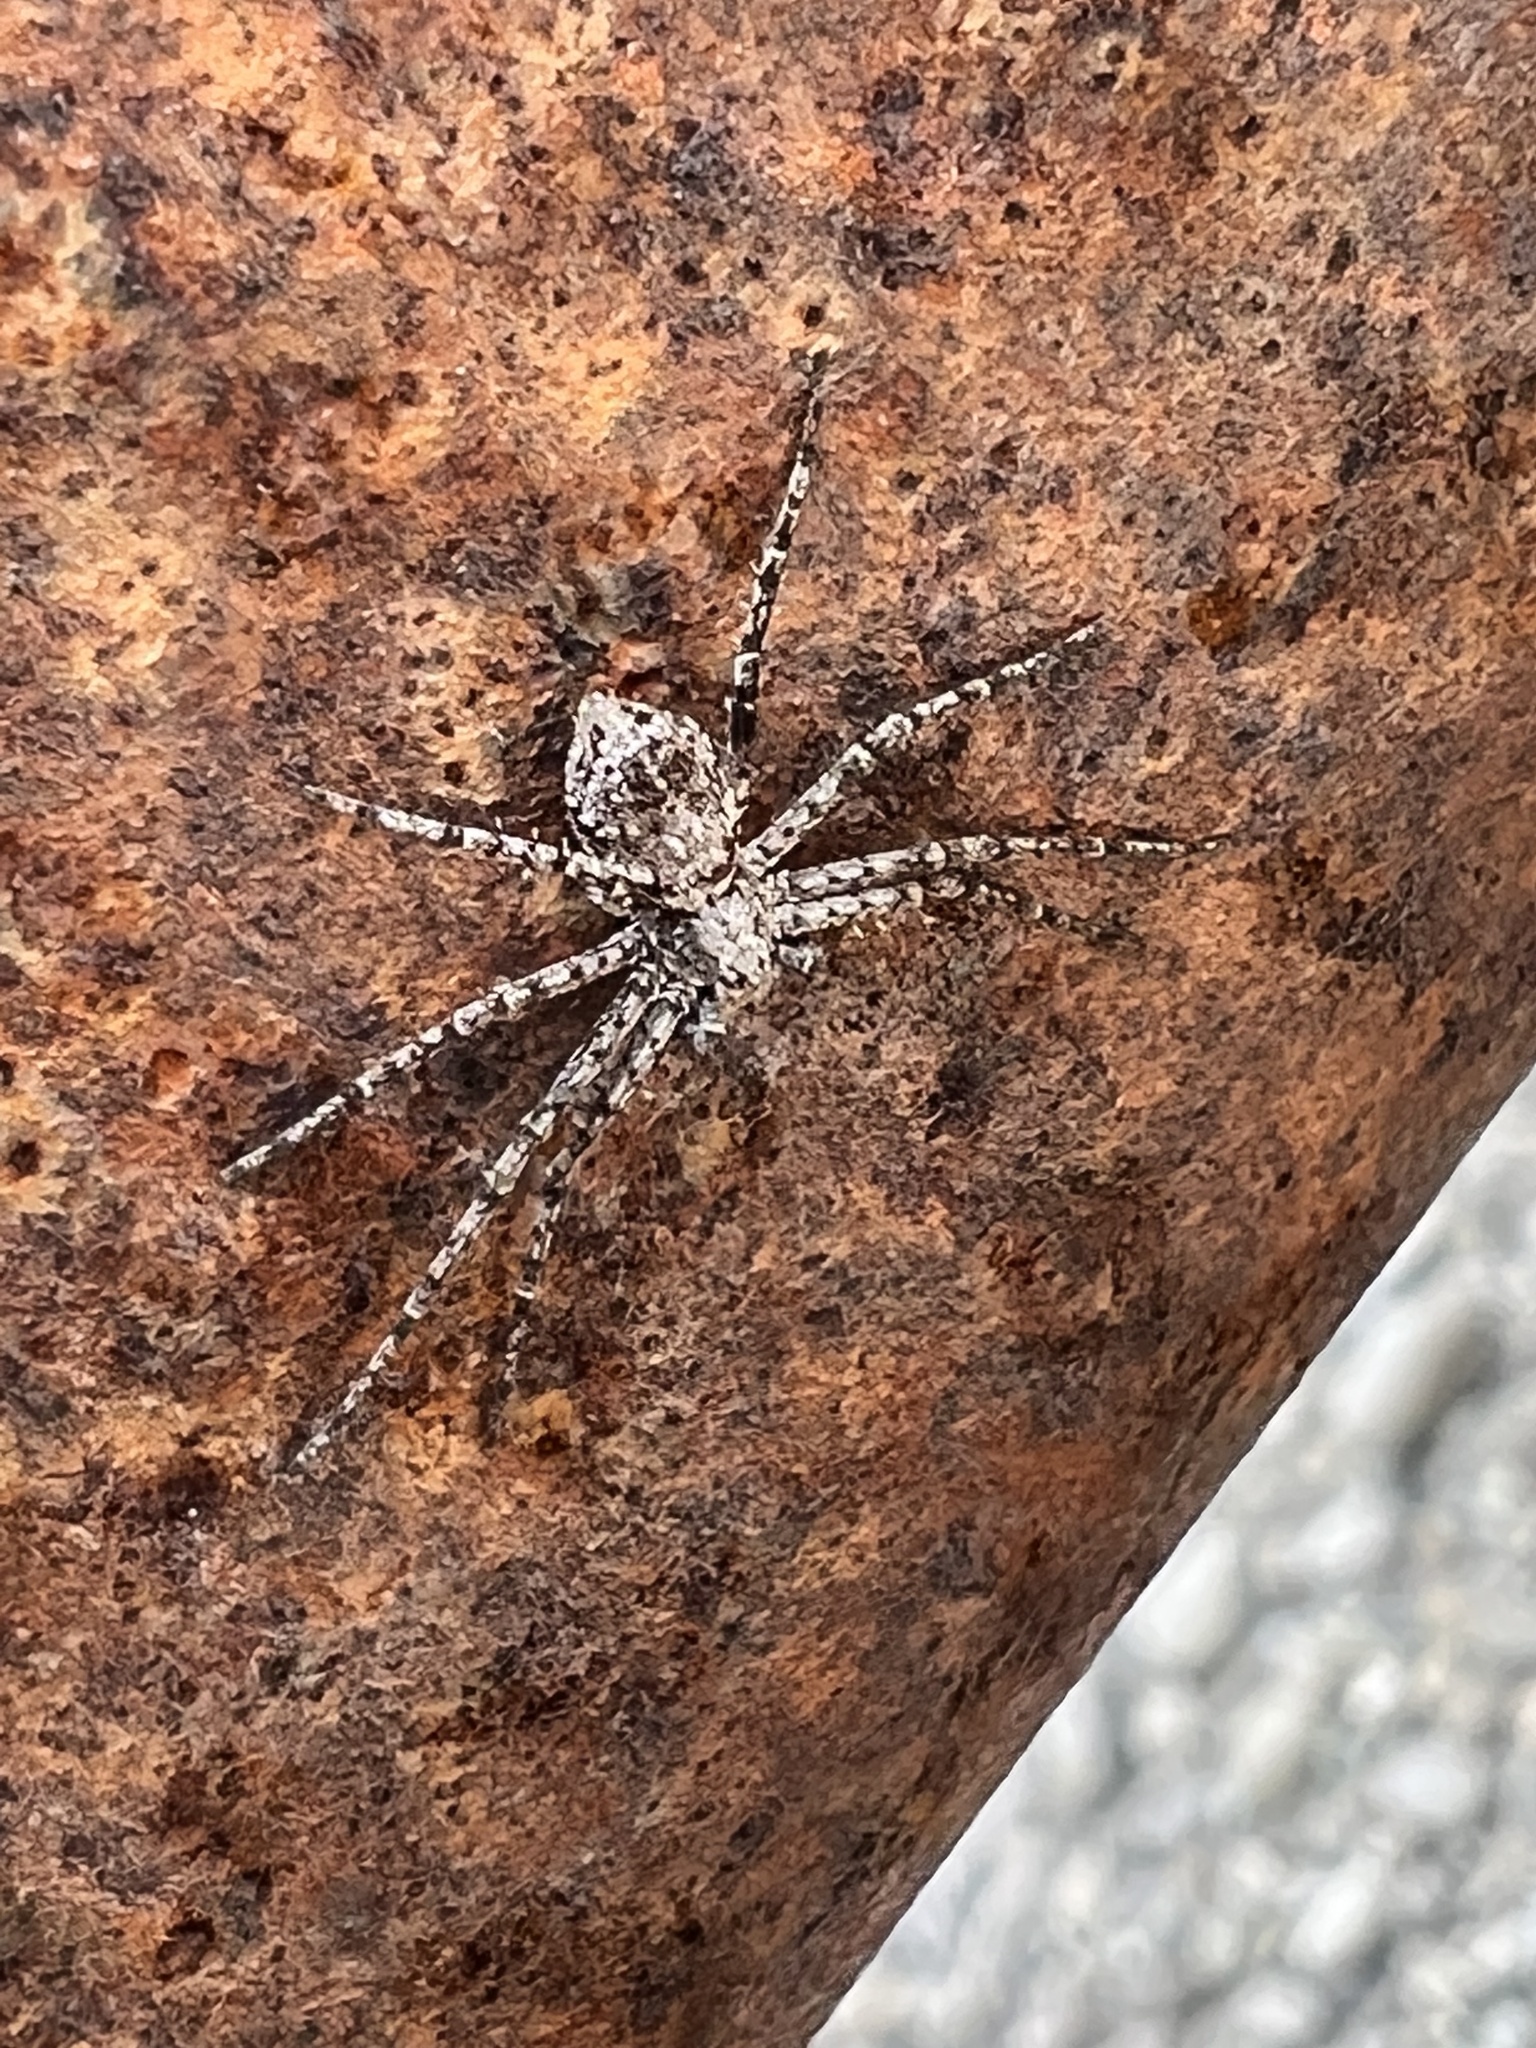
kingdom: Animalia
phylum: Arthropoda
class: Arachnida
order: Araneae
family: Philodromidae
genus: Philodromus
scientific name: Philodromus spectabilis
